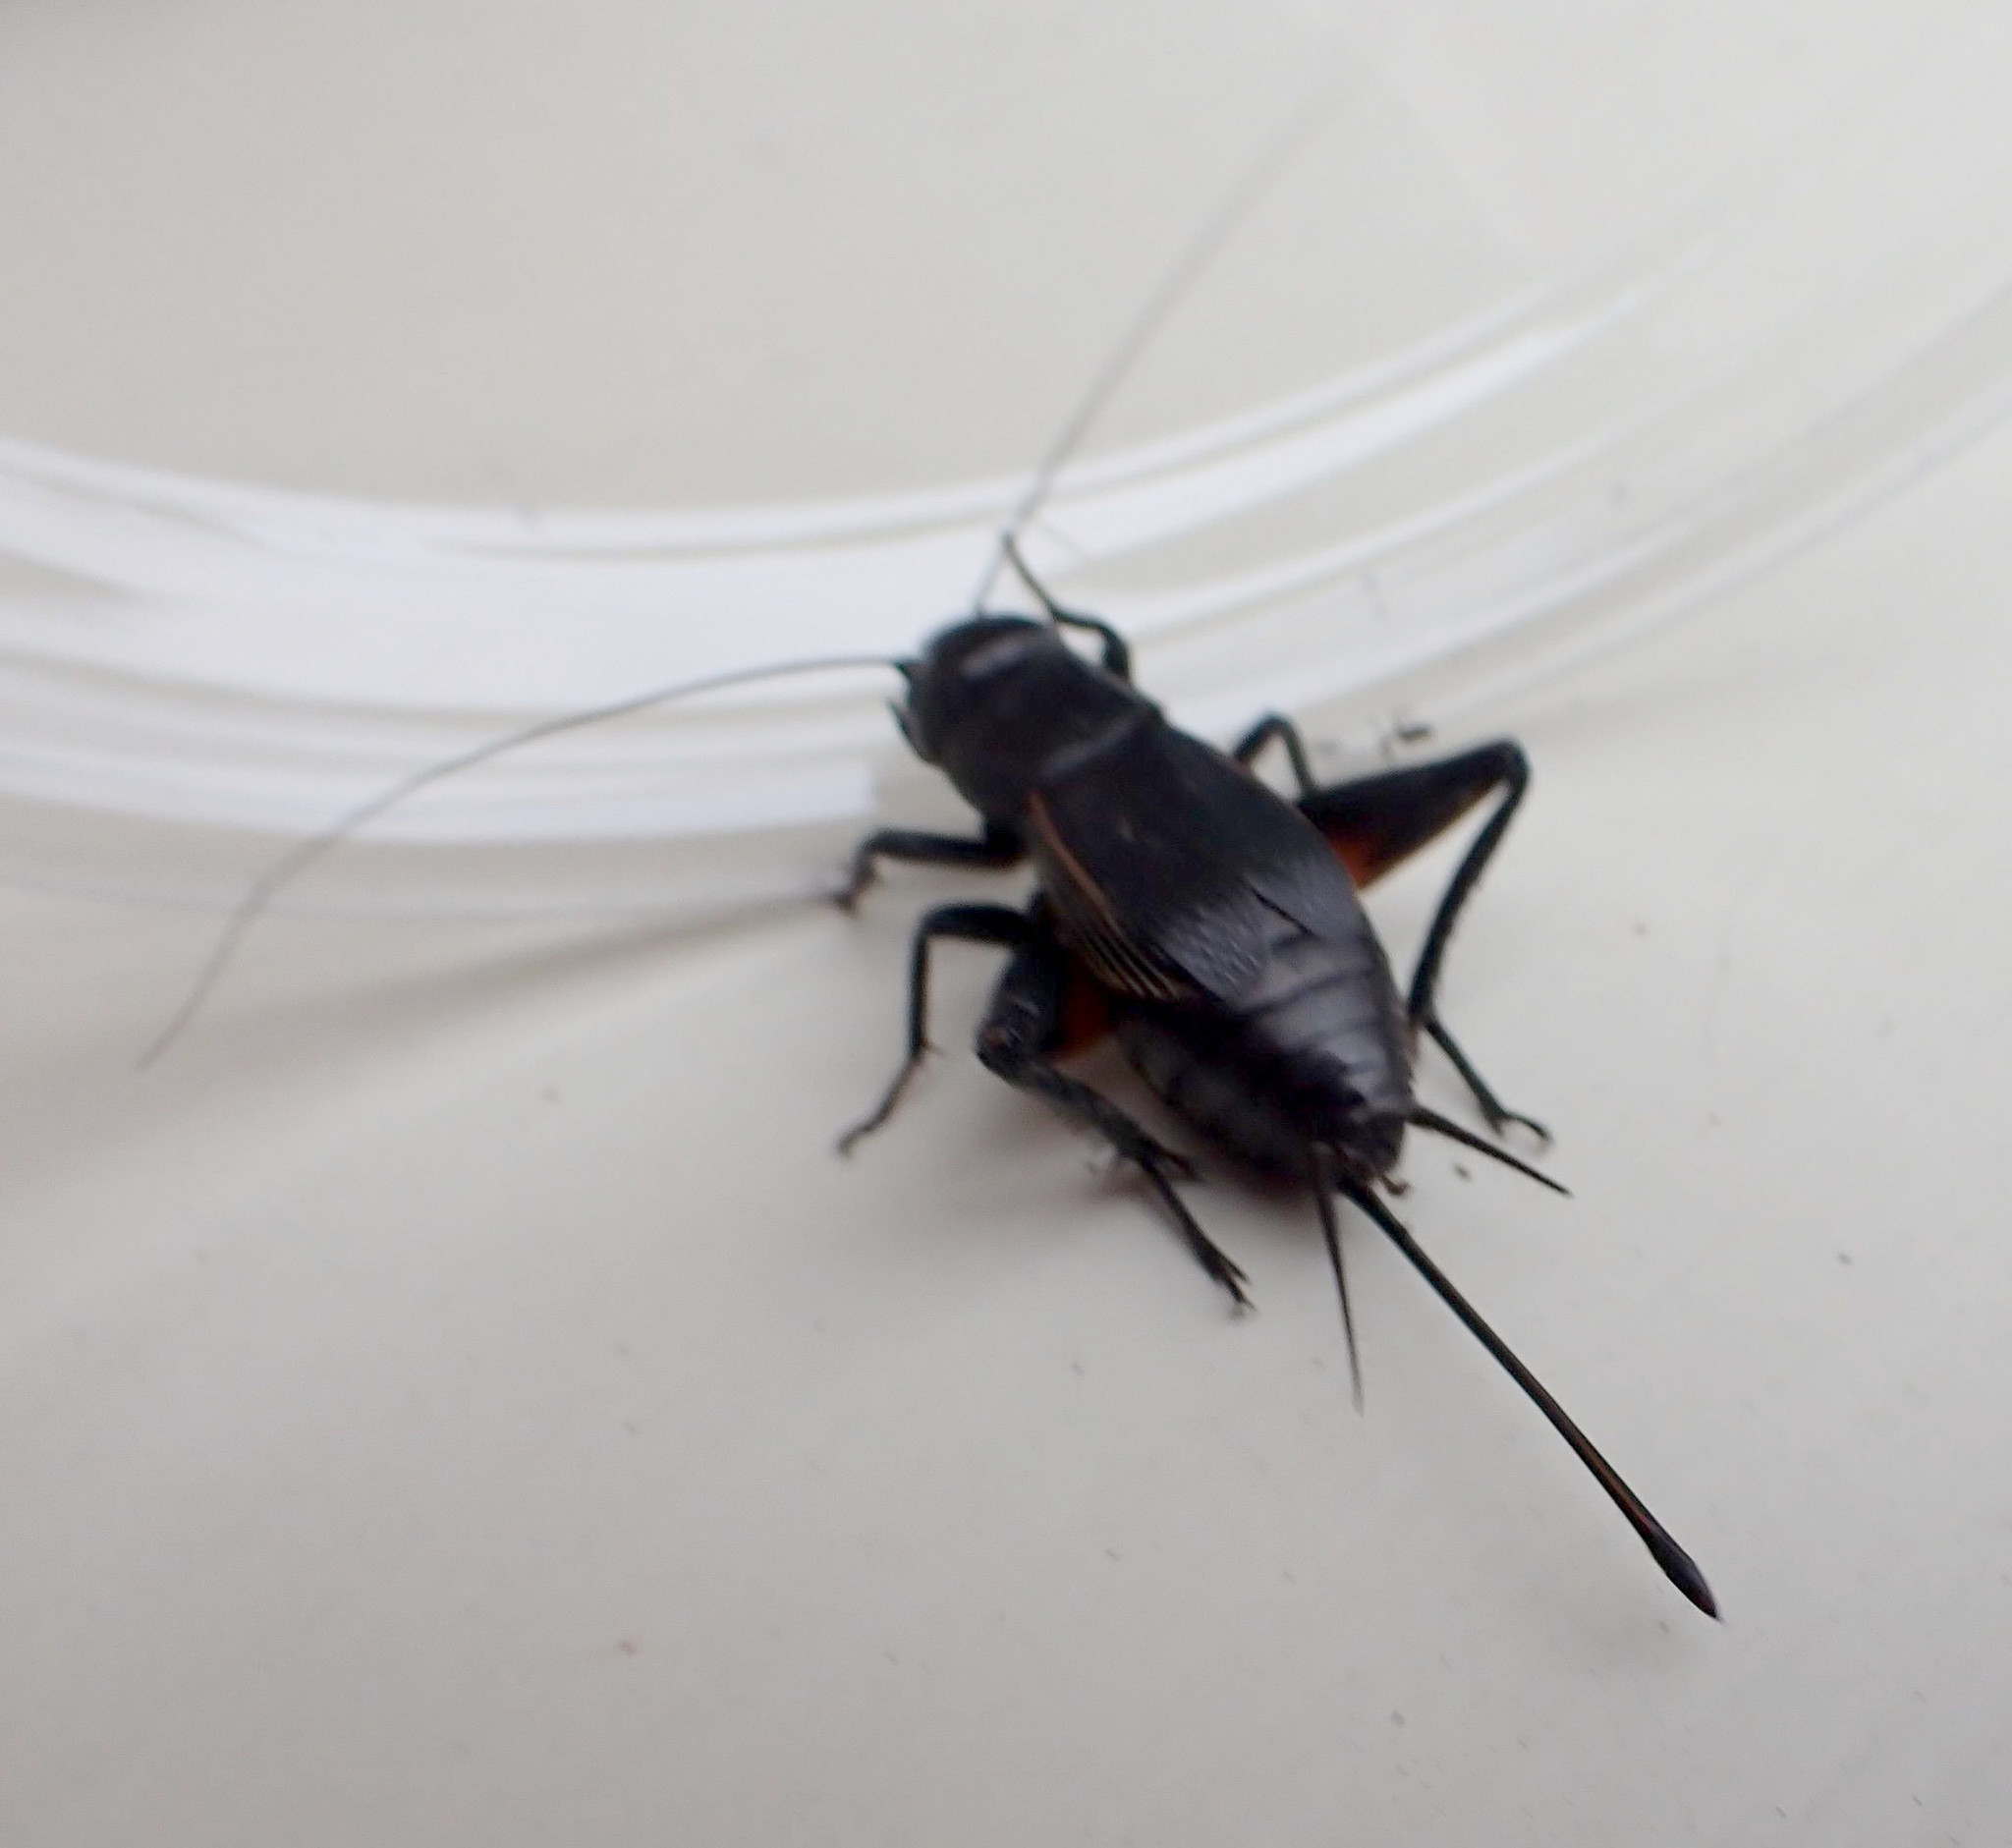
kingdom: Animalia
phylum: Arthropoda
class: Insecta
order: Orthoptera
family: Gryllidae
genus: Gryllus
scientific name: Gryllus pennsylvanicus
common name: Fall field cricket
